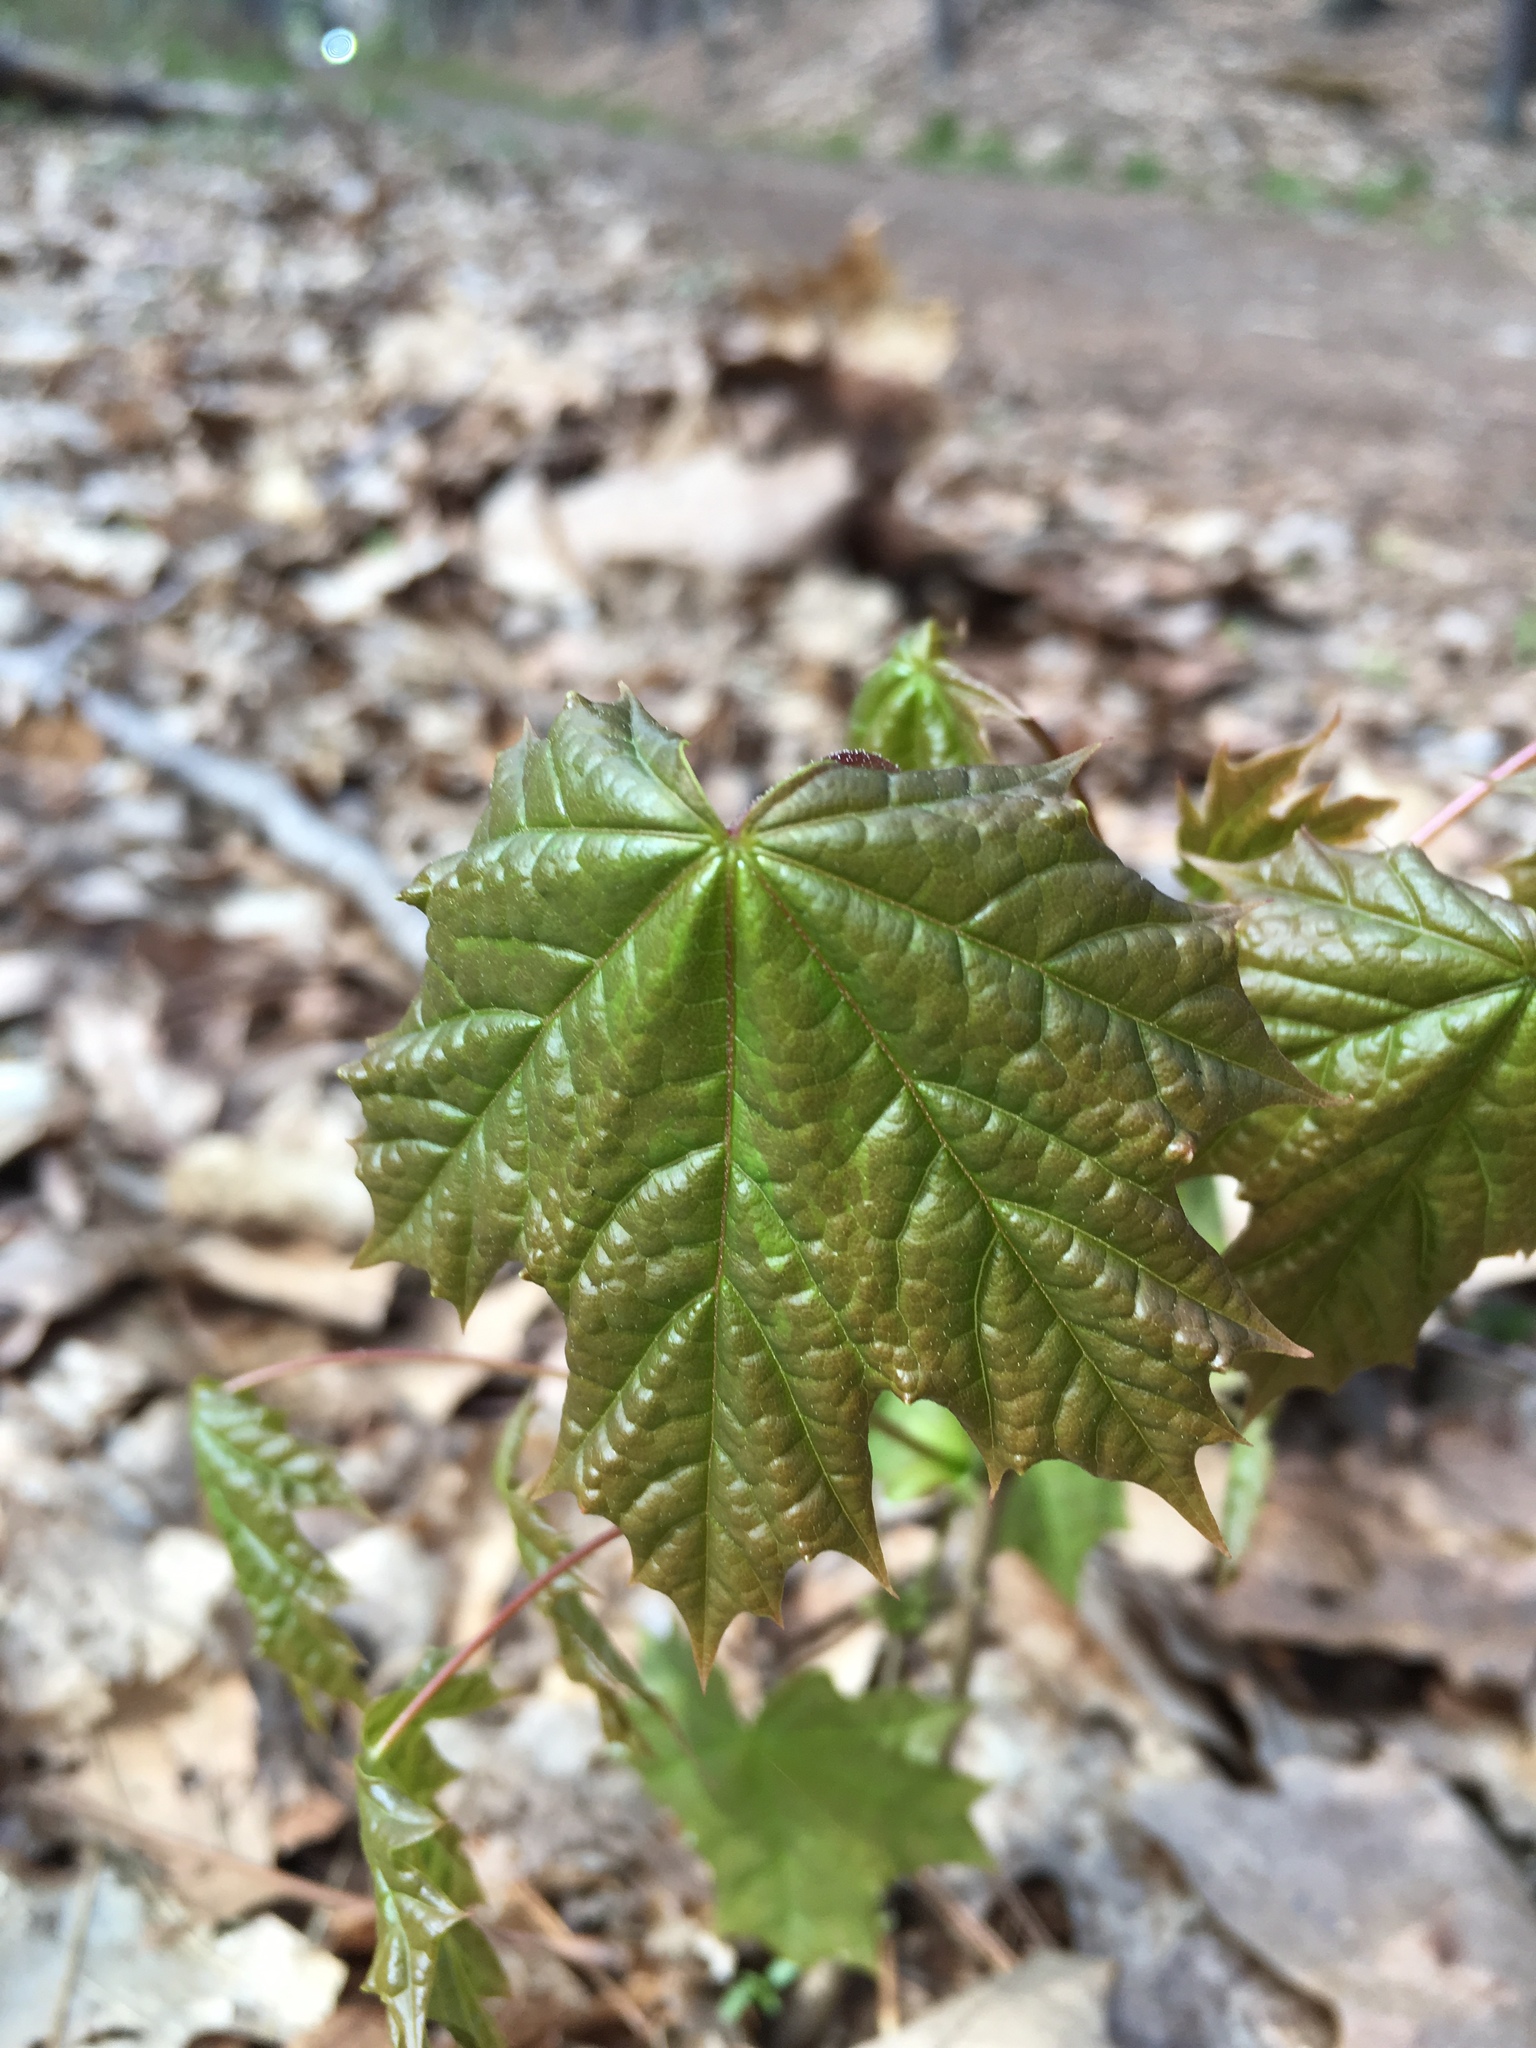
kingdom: Plantae
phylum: Tracheophyta
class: Magnoliopsida
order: Sapindales
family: Sapindaceae
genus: Acer
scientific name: Acer platanoides
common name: Norway maple
